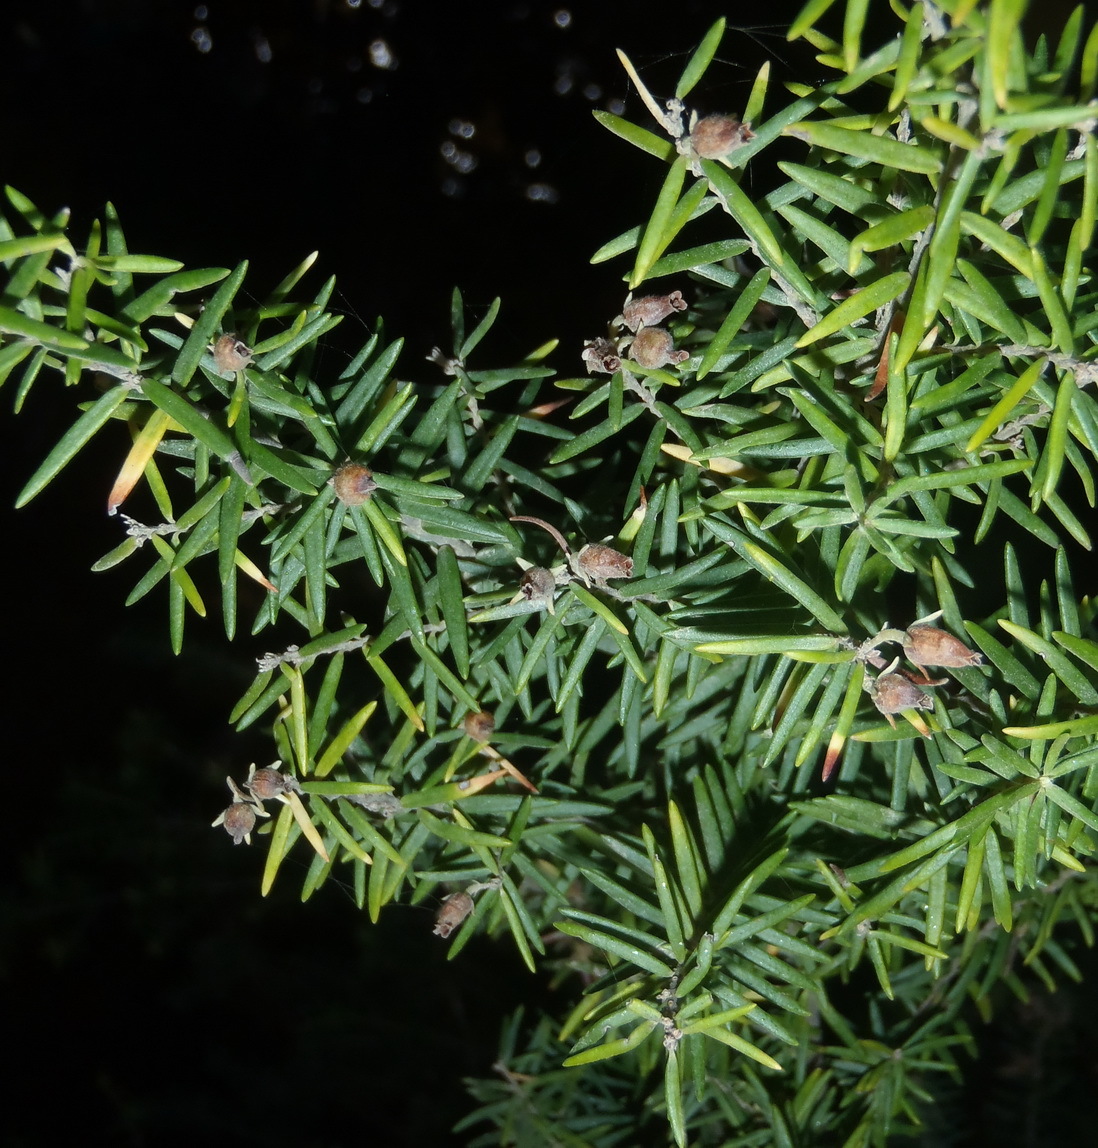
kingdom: Plantae
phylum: Tracheophyta
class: Magnoliopsida
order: Ericales
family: Ericaceae
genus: Erica
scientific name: Erica caffra
